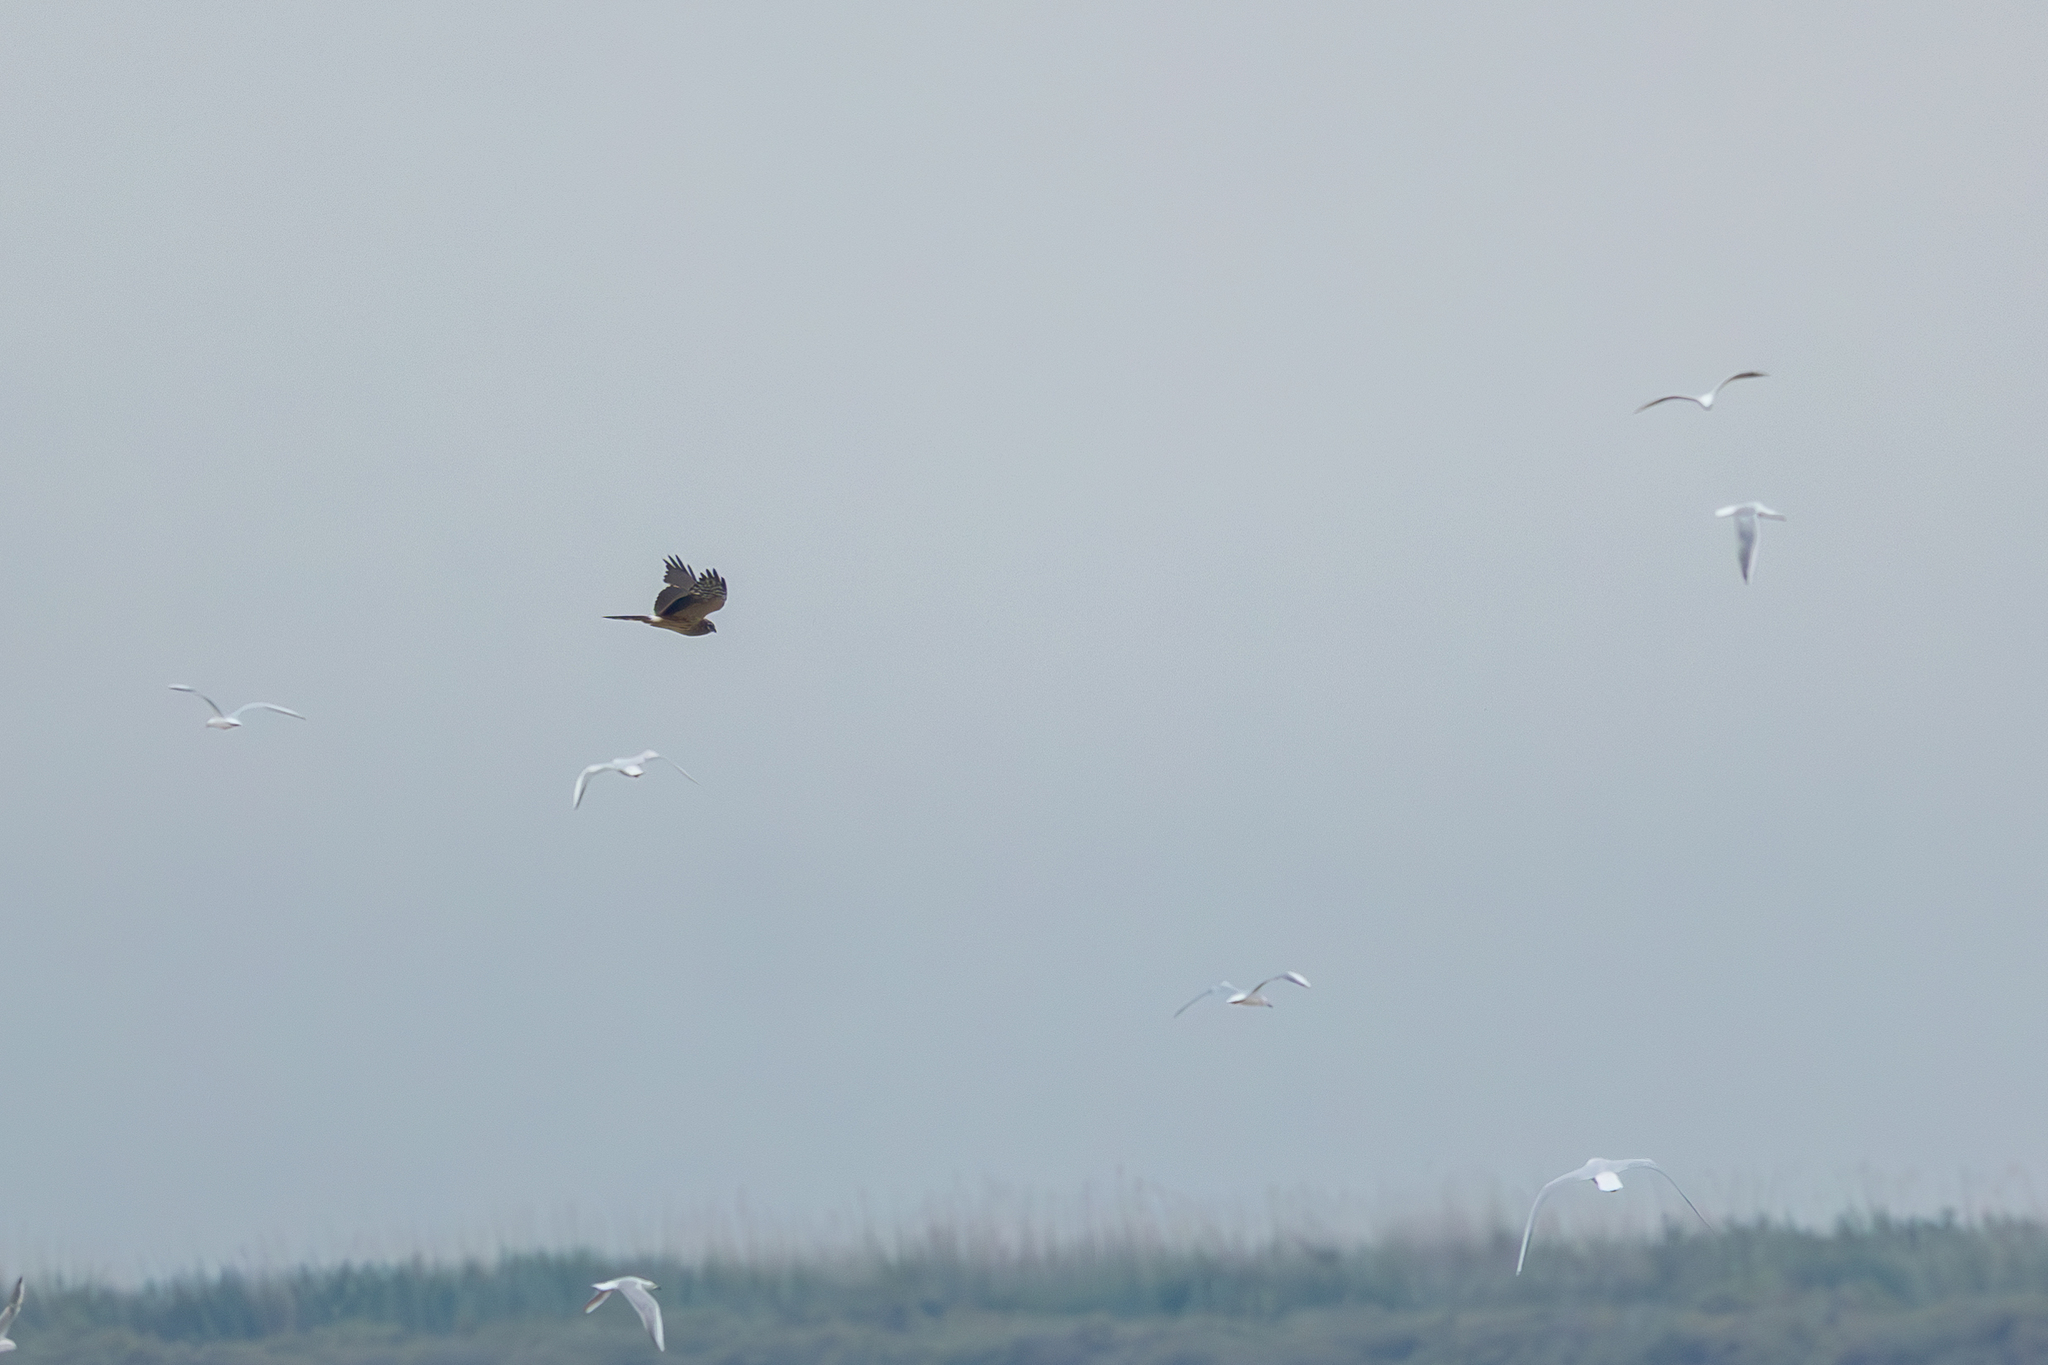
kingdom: Animalia
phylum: Chordata
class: Aves
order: Accipitriformes
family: Accipitridae
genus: Circus
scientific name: Circus pygargus
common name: Montagu's harrier
